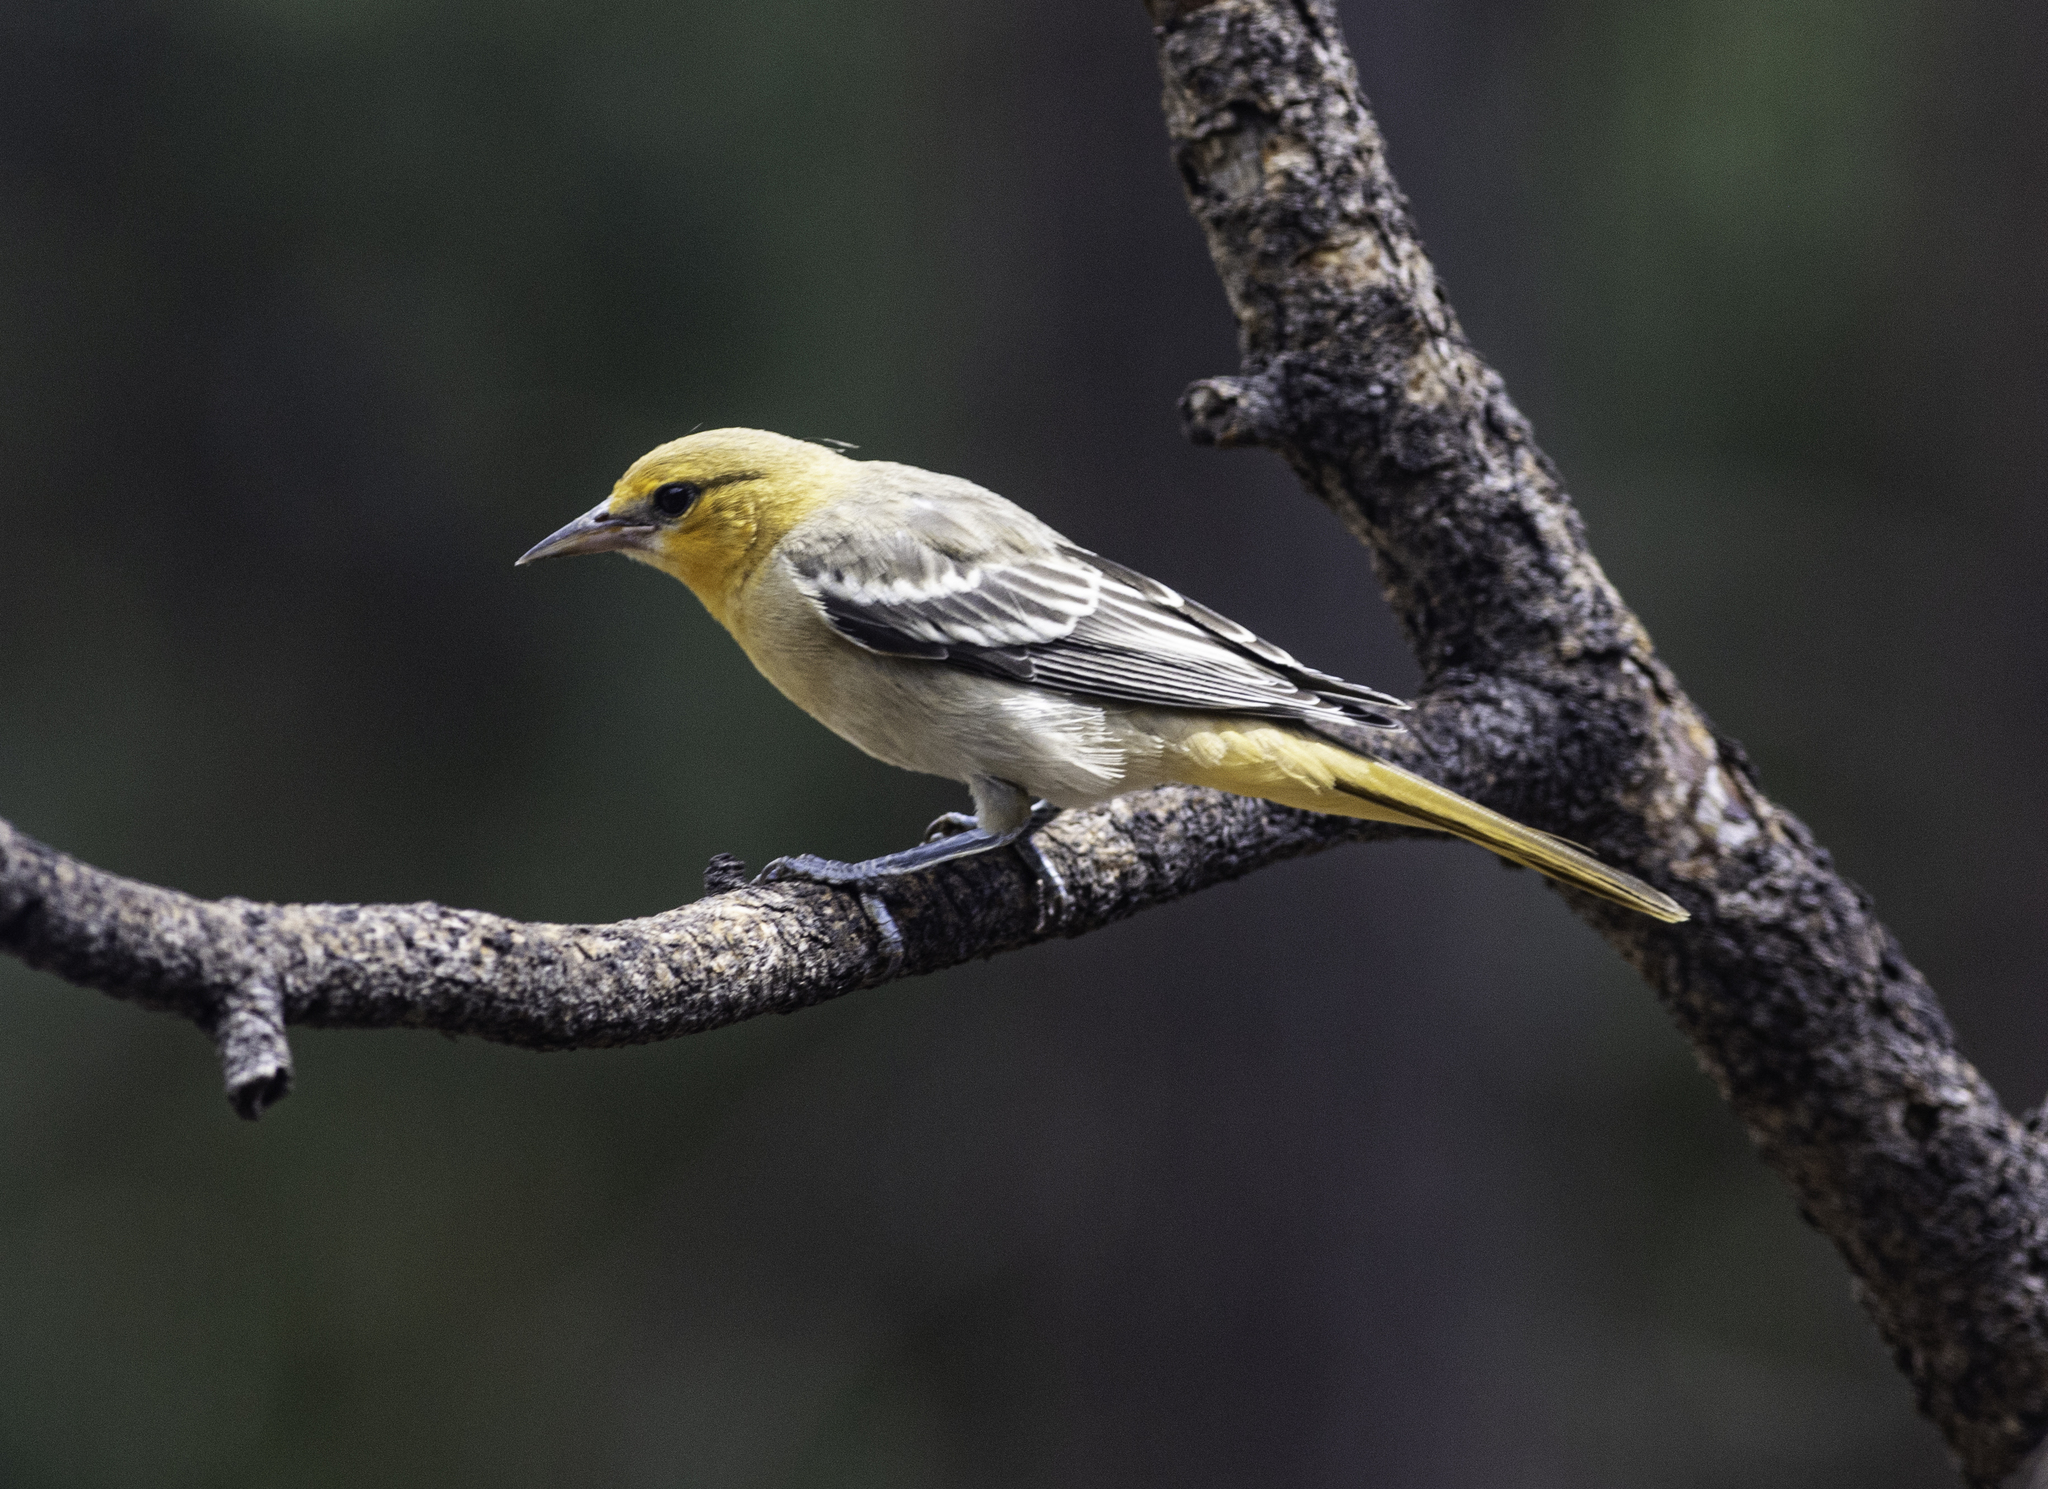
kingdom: Animalia
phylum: Chordata
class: Aves
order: Passeriformes
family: Icteridae
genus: Icterus
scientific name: Icterus bullockii
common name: Bullock's oriole
